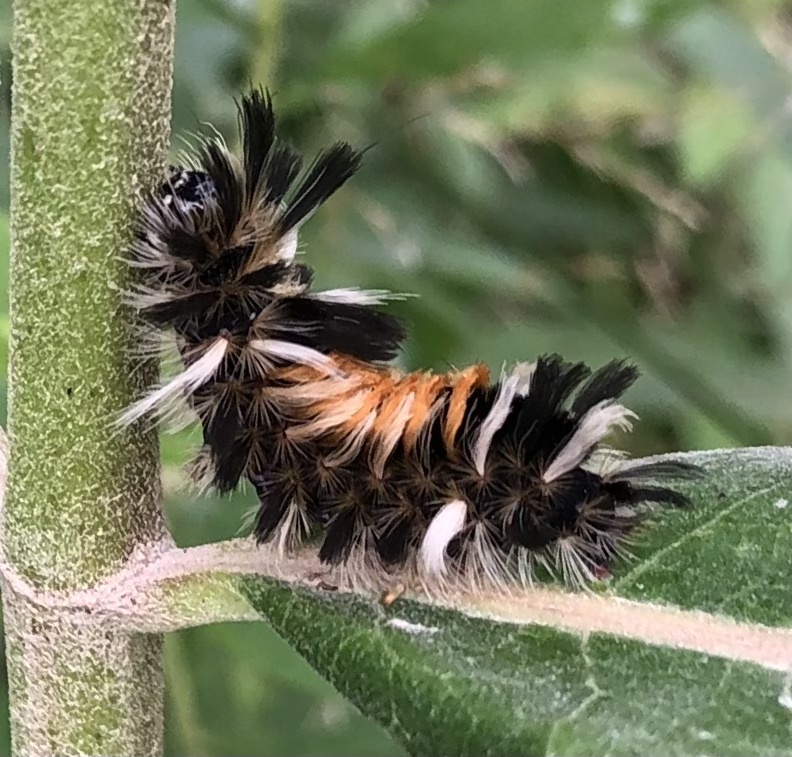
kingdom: Animalia
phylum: Arthropoda
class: Insecta
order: Lepidoptera
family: Erebidae
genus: Euchaetes
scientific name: Euchaetes egle
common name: Milkweed tussock moth
